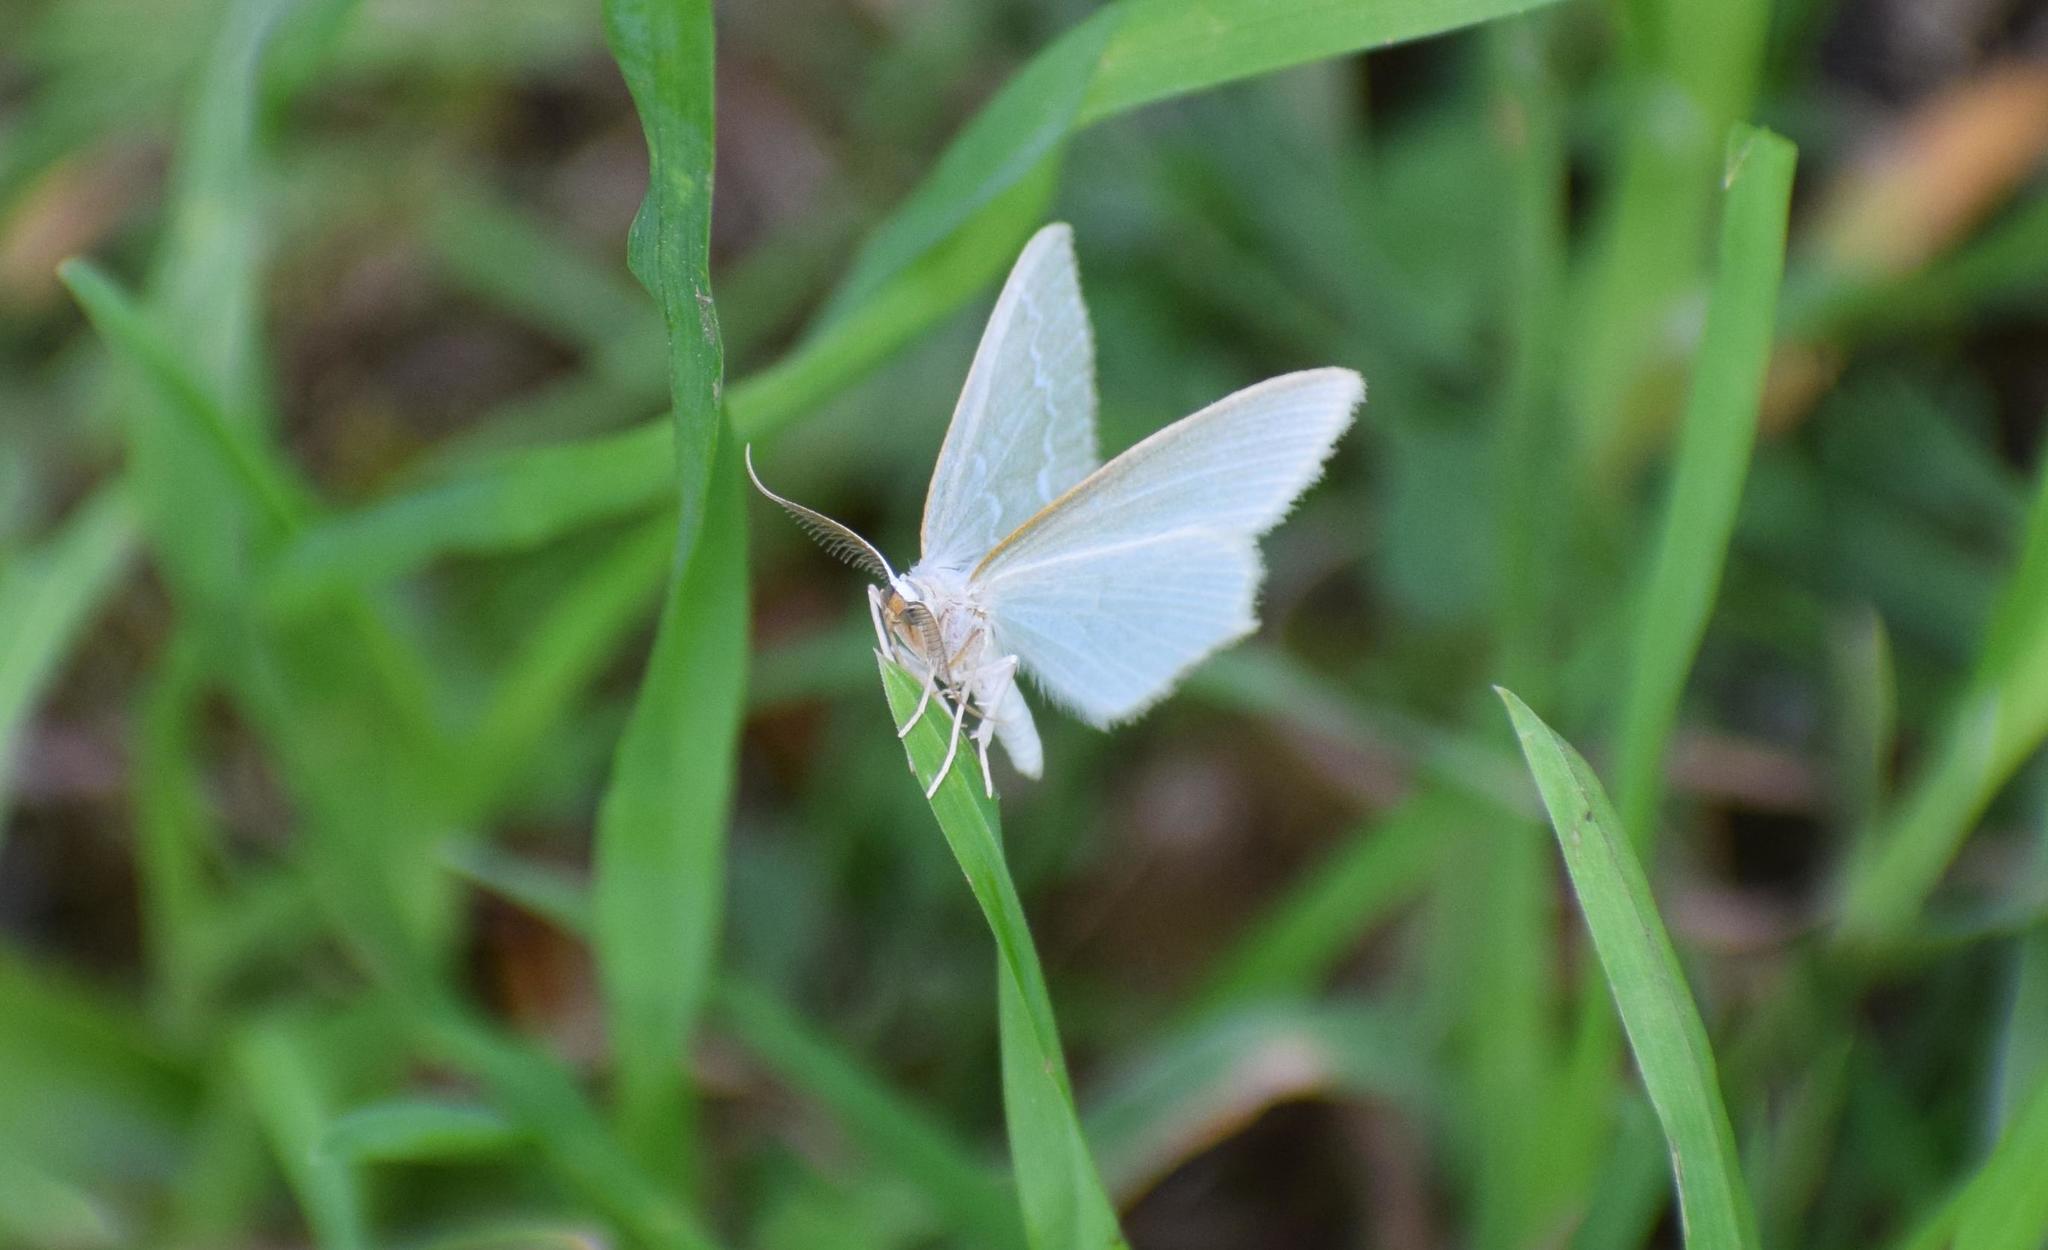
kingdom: Animalia
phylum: Arthropoda
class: Insecta
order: Lepidoptera
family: Geometridae
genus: Jodis
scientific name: Jodis putata
